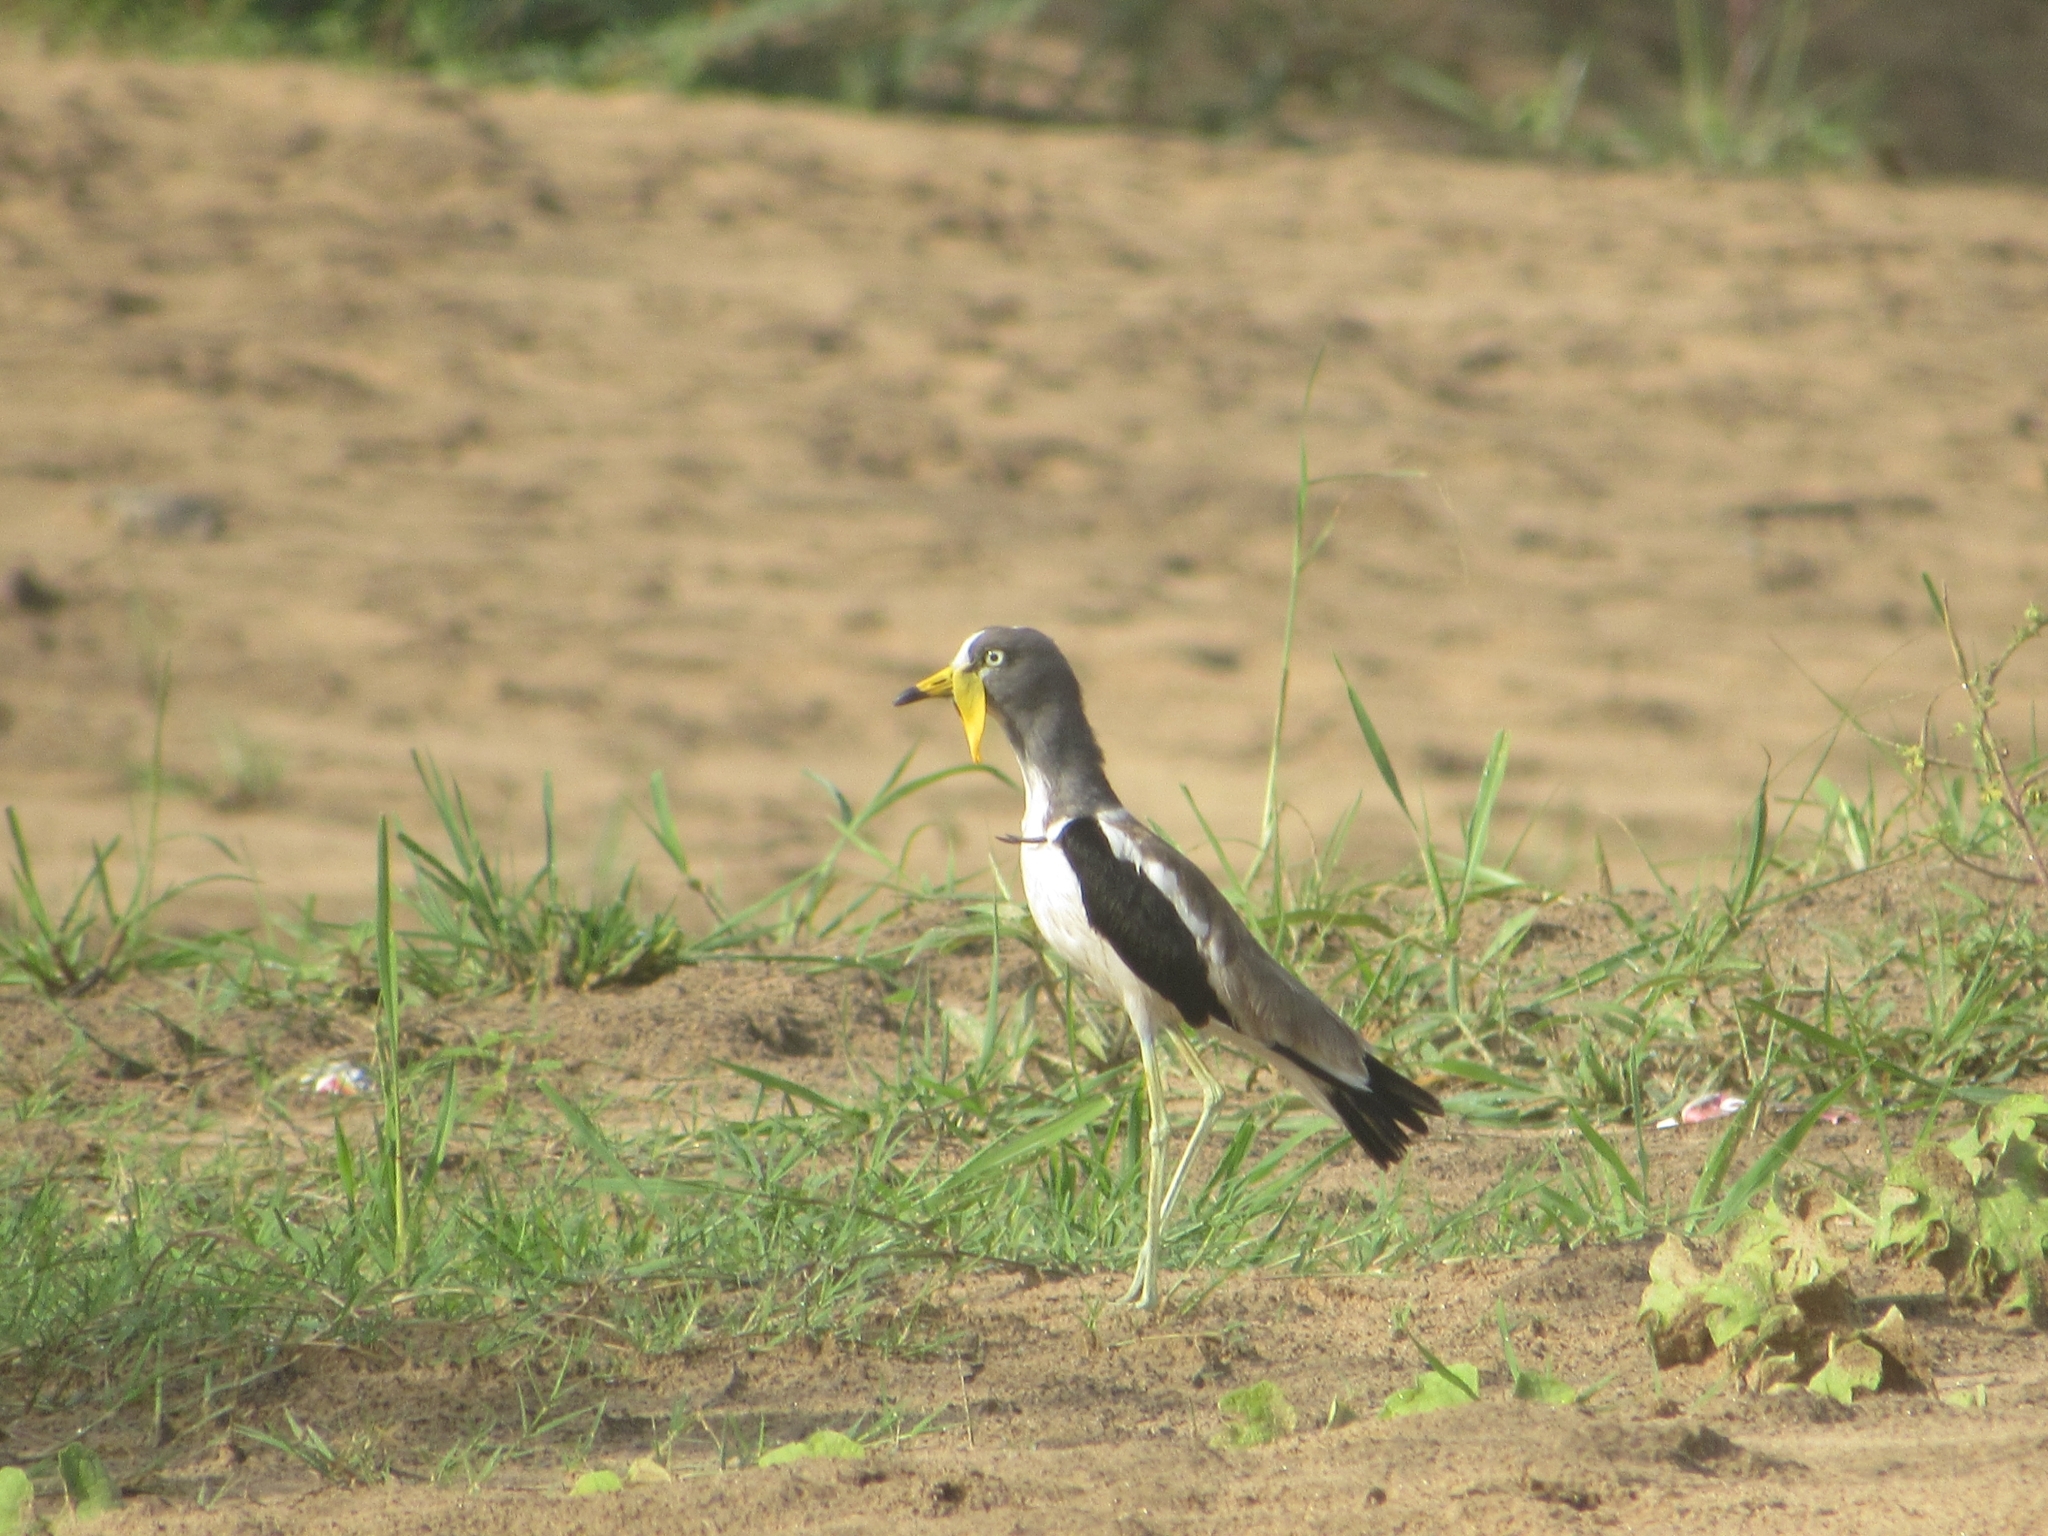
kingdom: Animalia
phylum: Chordata
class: Aves
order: Charadriiformes
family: Charadriidae
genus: Vanellus
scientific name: Vanellus albiceps
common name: White-crowned lapwing
